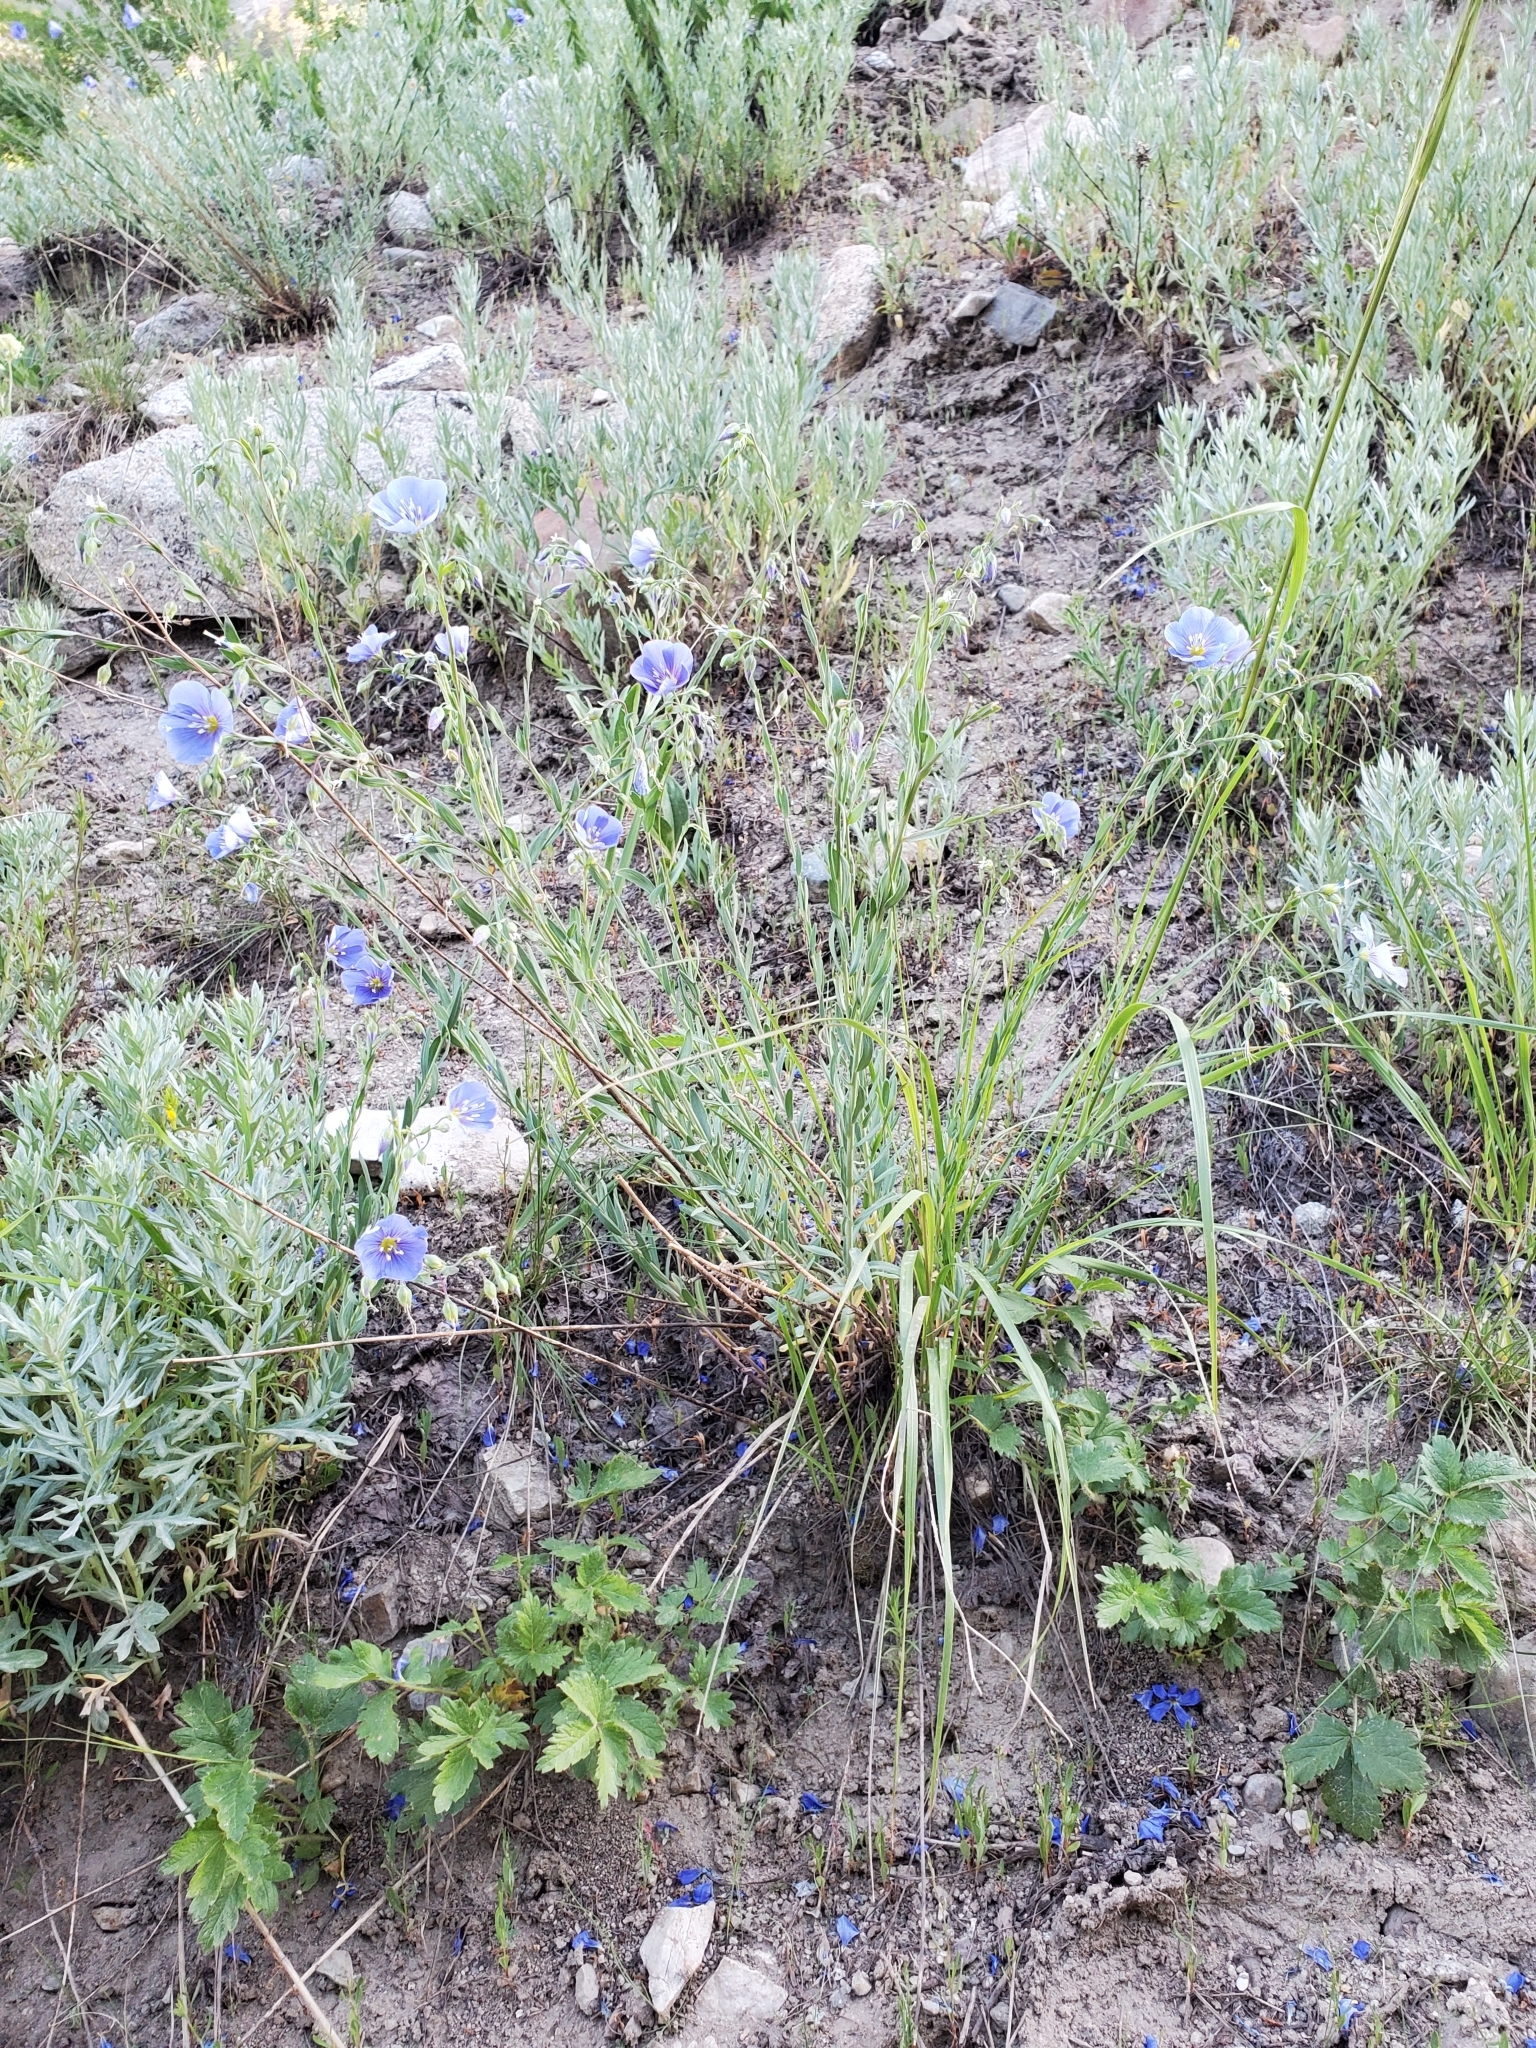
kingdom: Plantae
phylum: Tracheophyta
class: Magnoliopsida
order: Malpighiales
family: Linaceae
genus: Linum
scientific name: Linum lewisii
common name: Prairie flax
